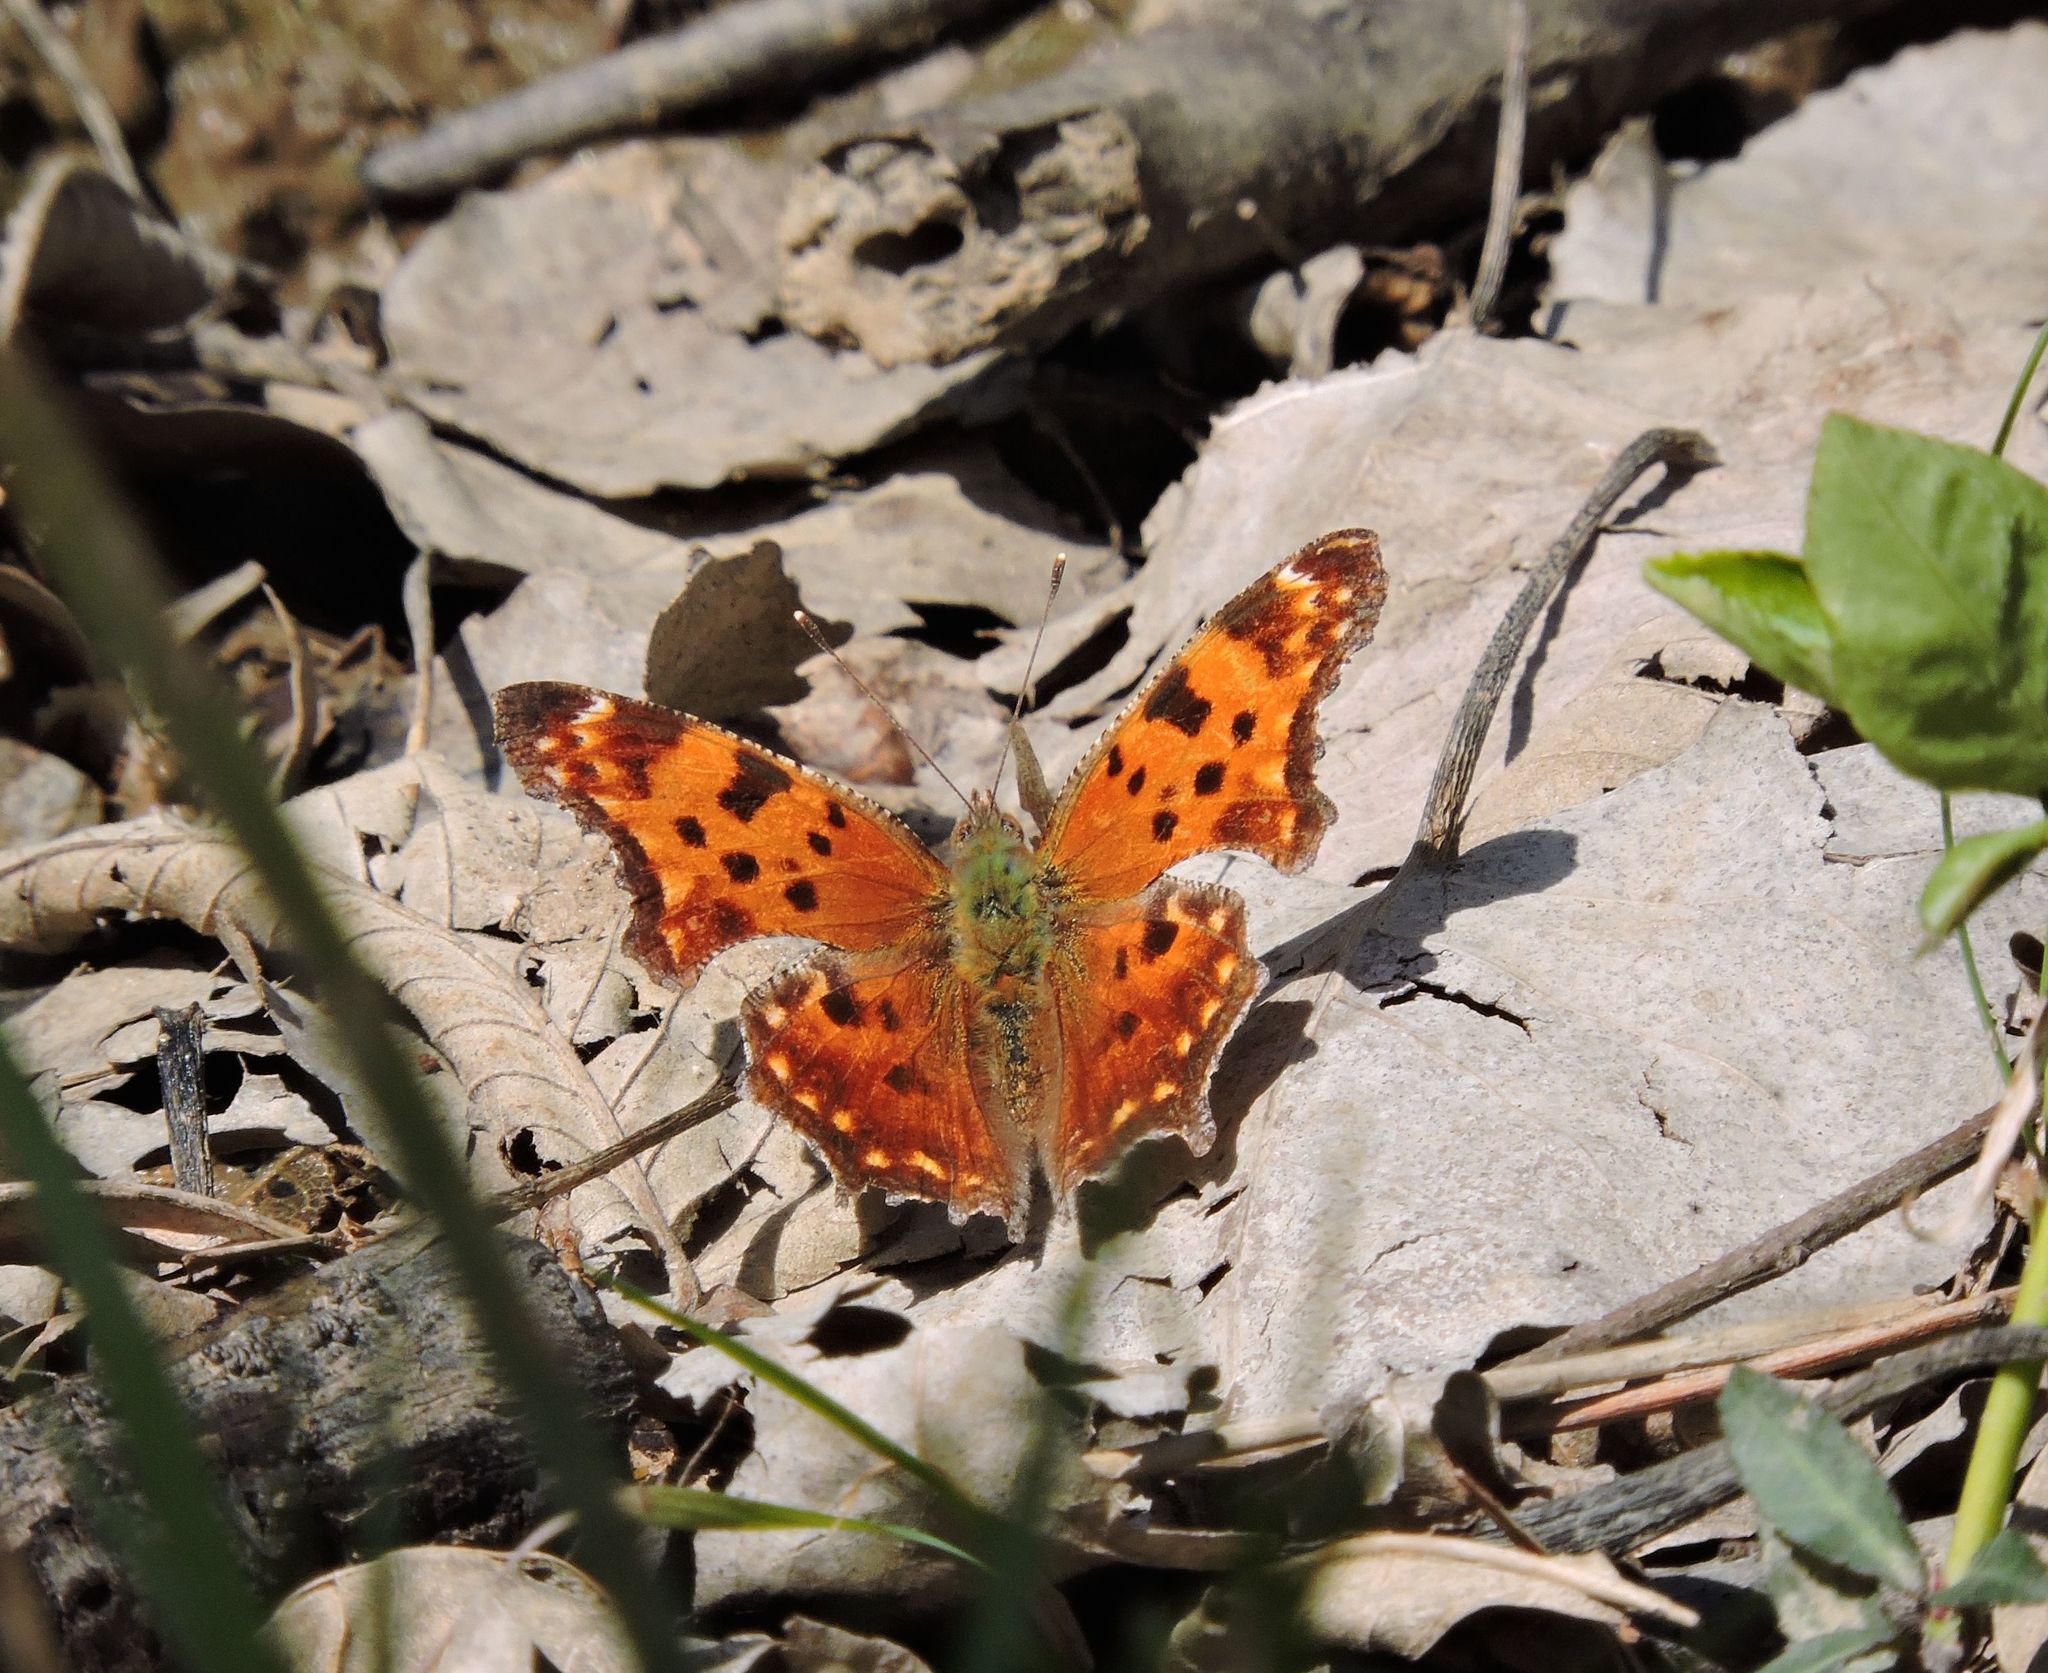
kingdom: Animalia
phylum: Arthropoda
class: Insecta
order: Lepidoptera
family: Nymphalidae
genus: Polygonia
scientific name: Polygonia comma
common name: Eastern comma
